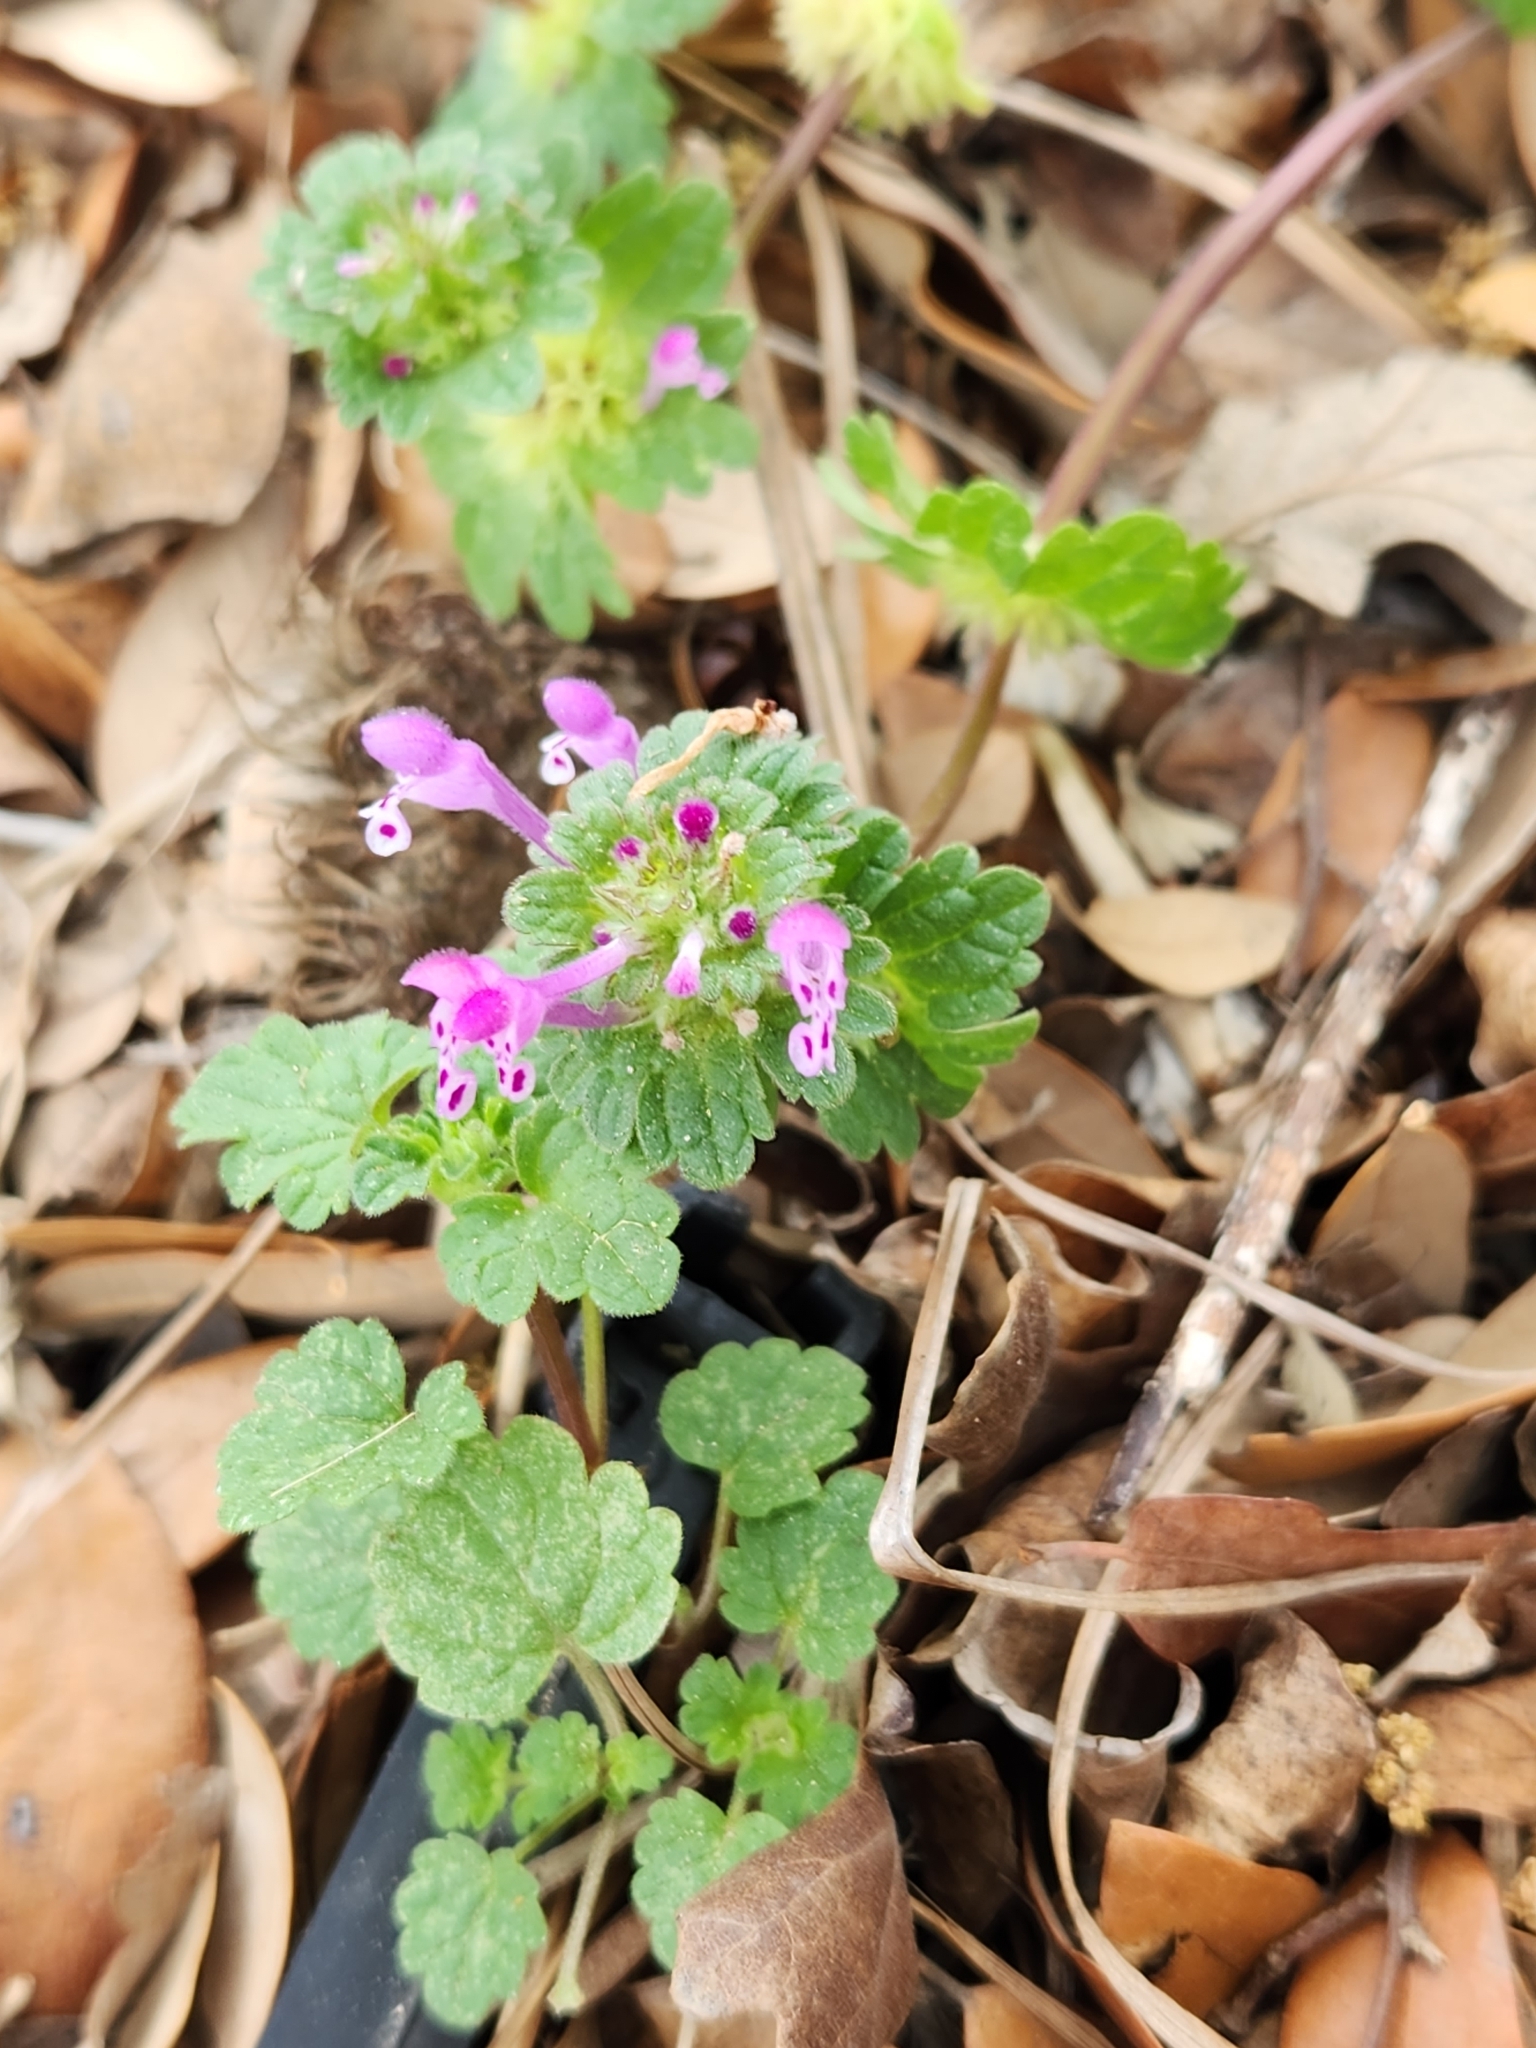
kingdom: Plantae
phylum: Tracheophyta
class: Magnoliopsida
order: Lamiales
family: Lamiaceae
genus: Lamium
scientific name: Lamium amplexicaule
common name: Henbit dead-nettle
